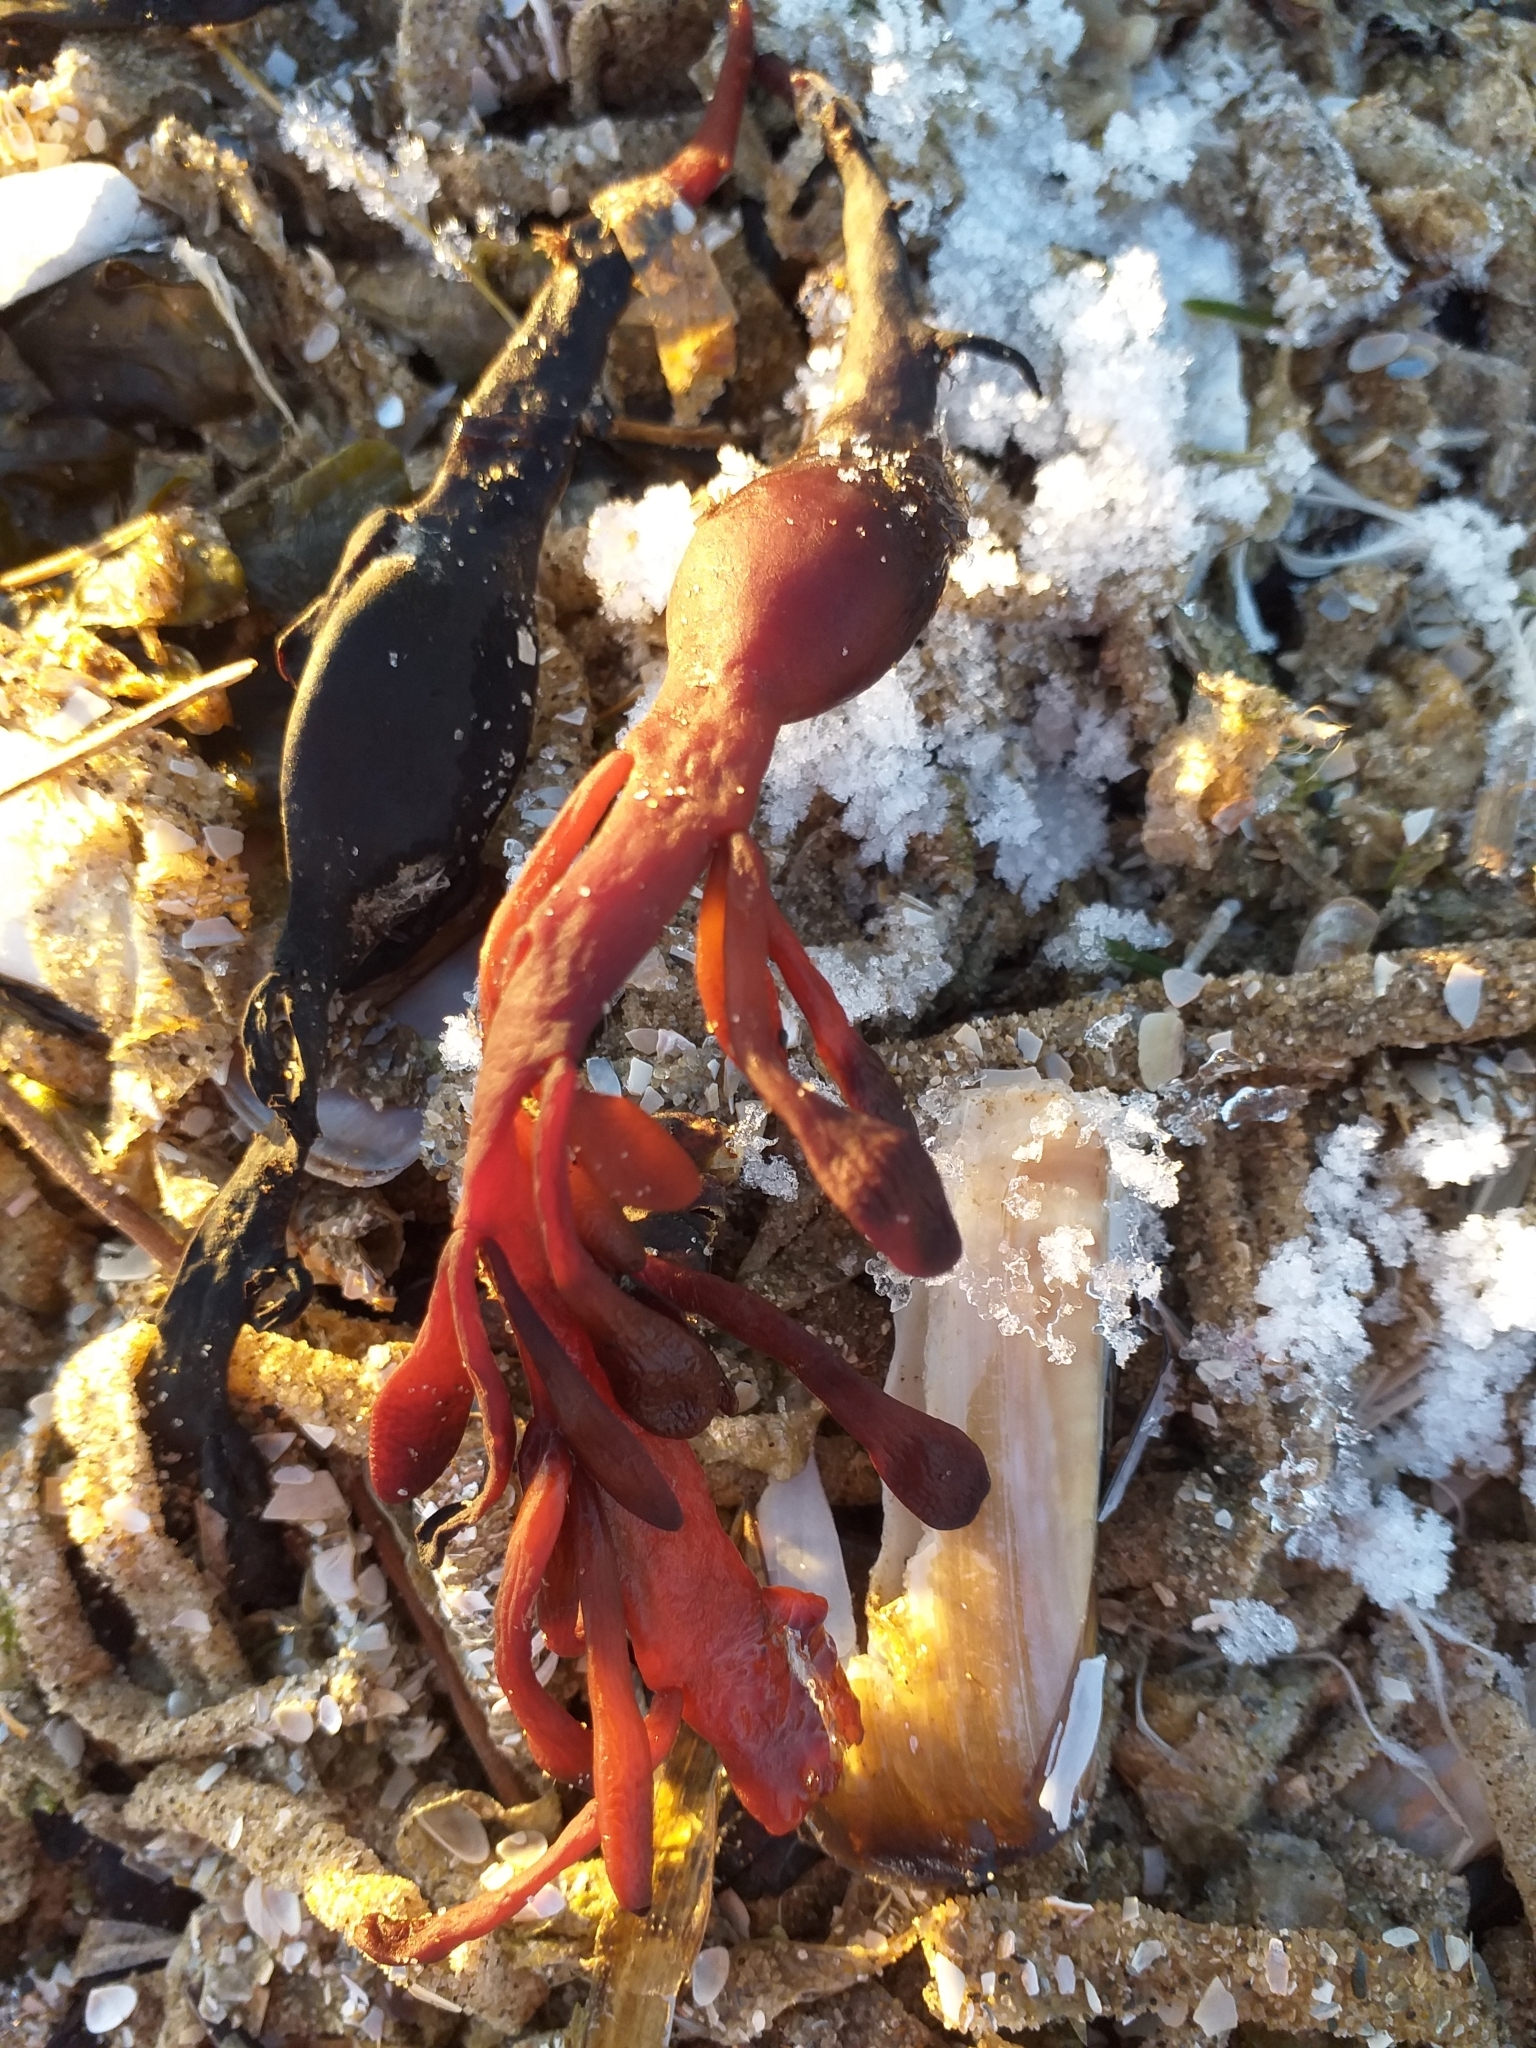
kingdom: Chromista
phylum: Ochrophyta
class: Phaeophyceae
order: Fucales
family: Fucaceae
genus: Ascophyllum
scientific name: Ascophyllum nodosum
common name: Knotted wrack
